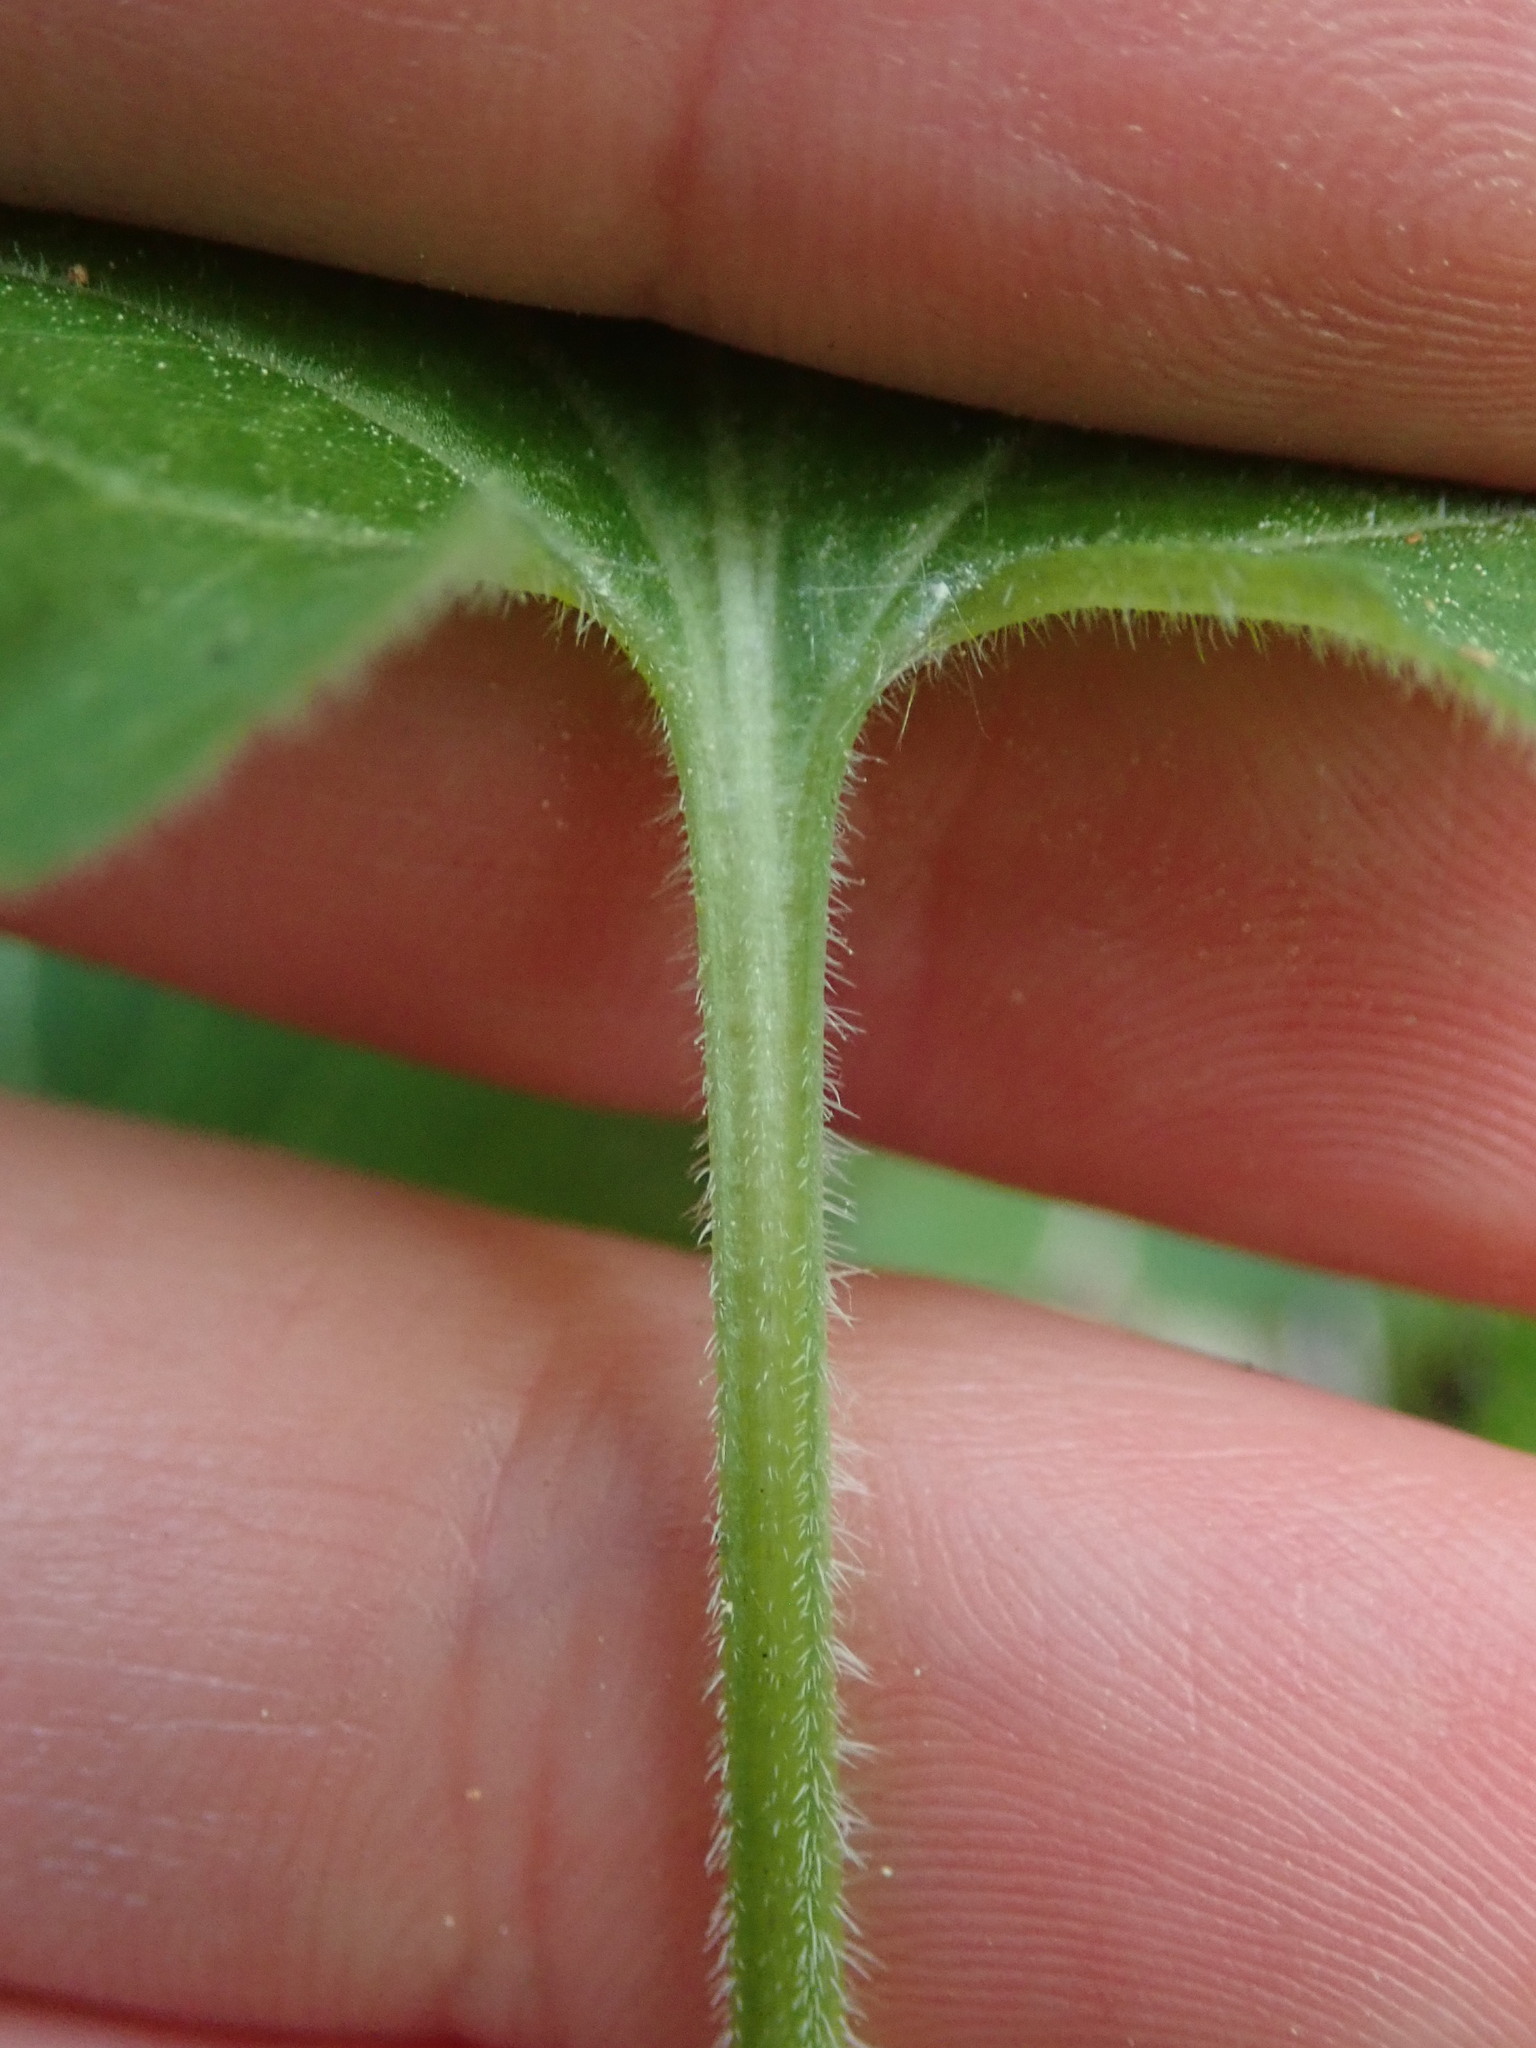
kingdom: Plantae
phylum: Tracheophyta
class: Magnoliopsida
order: Malpighiales
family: Violaceae
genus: Viola
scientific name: Viola hirta
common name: Hairy violet
